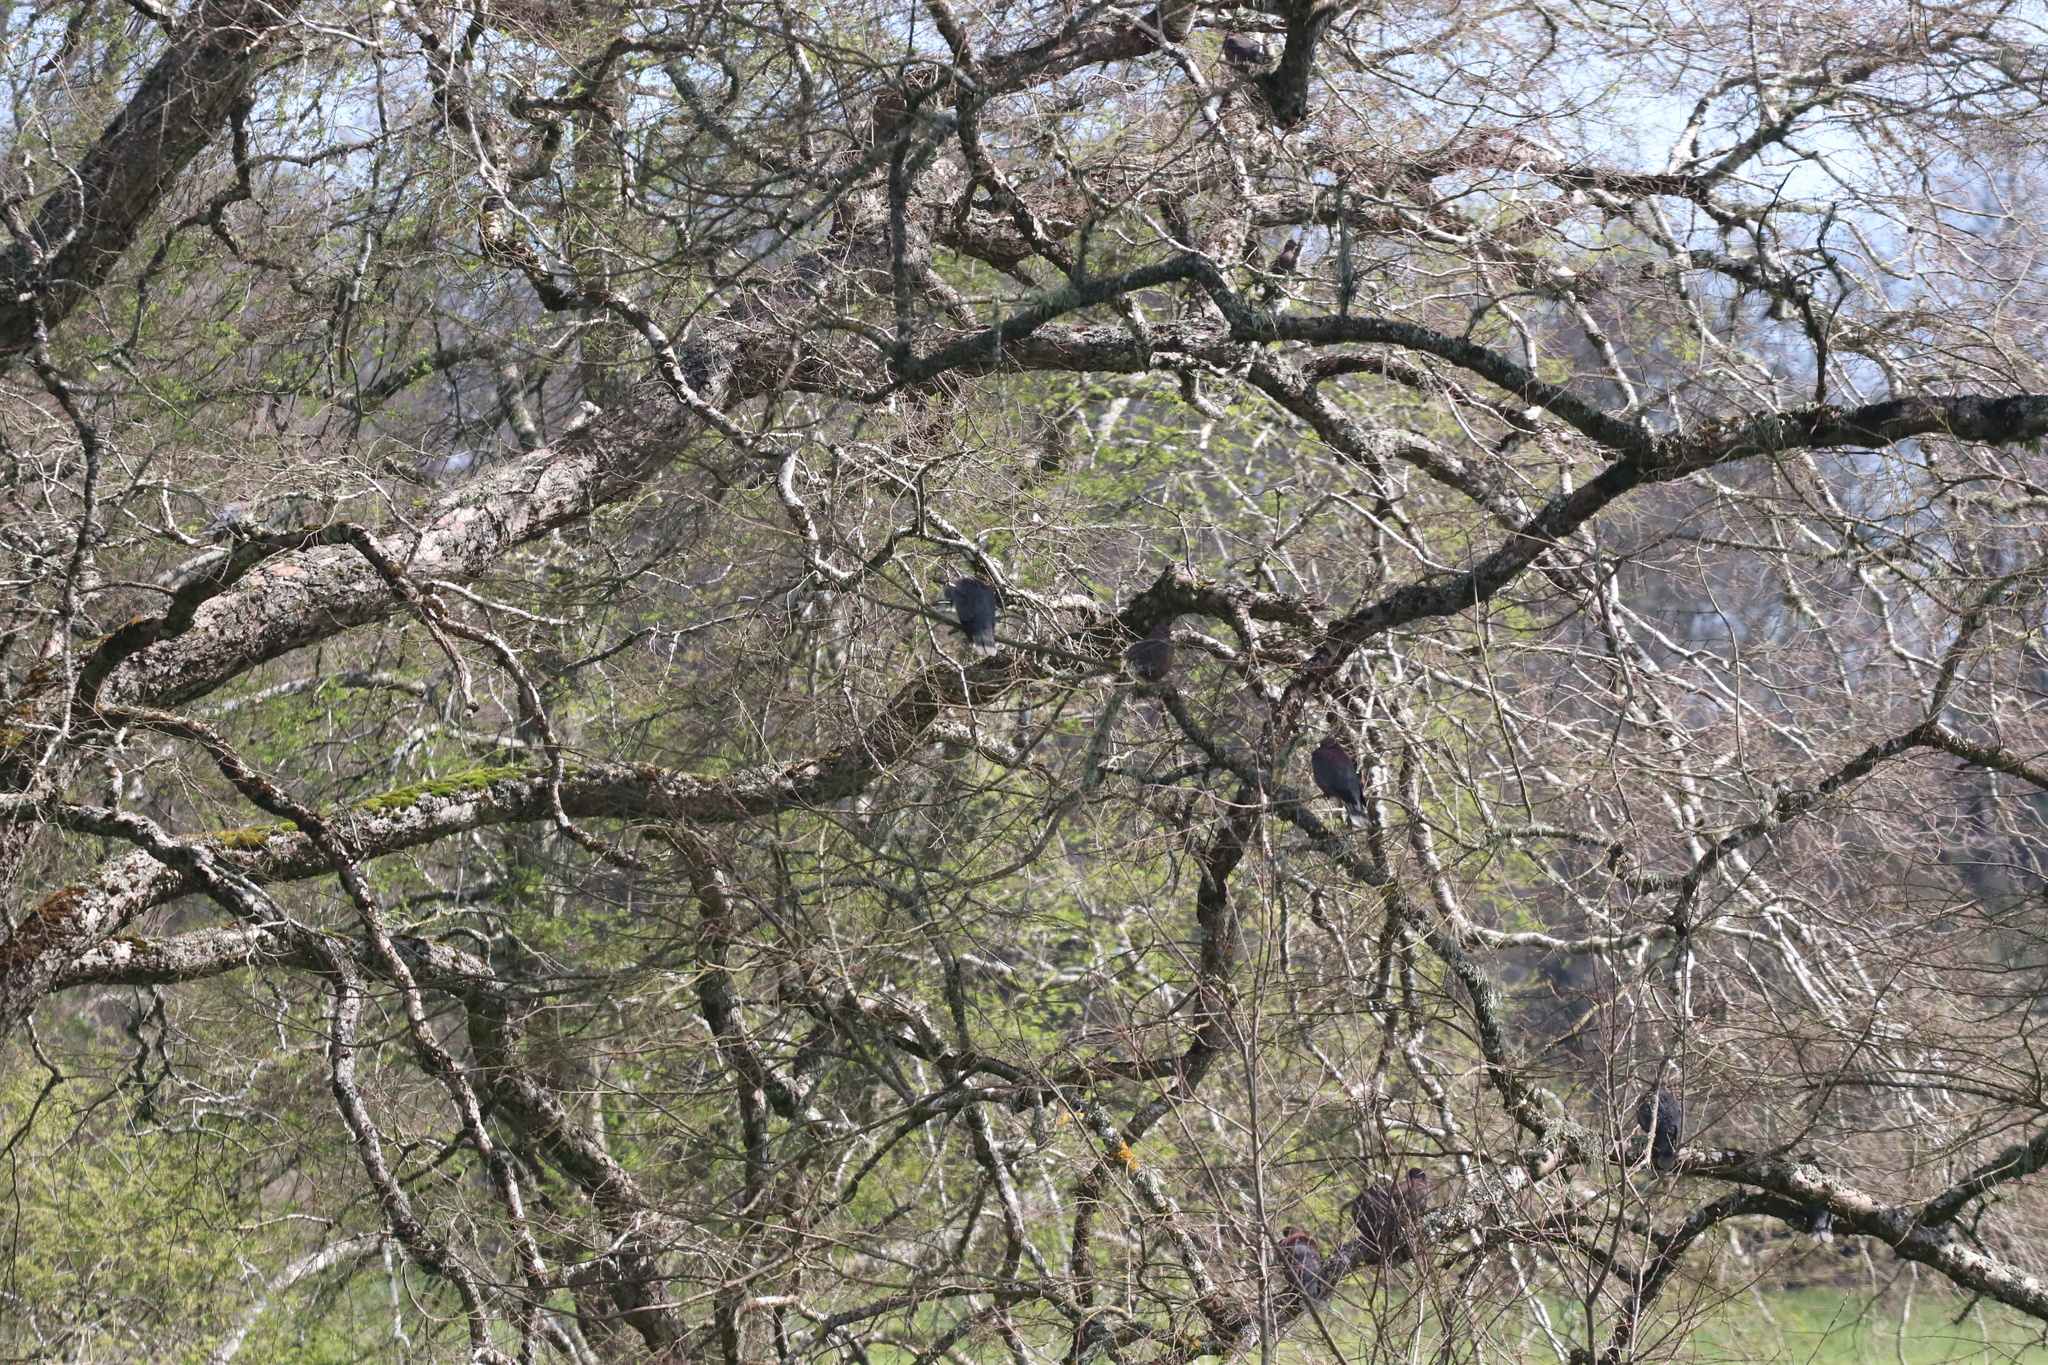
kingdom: Animalia
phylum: Chordata
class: Aves
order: Columbiformes
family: Columbidae
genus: Patagioenas
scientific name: Patagioenas araucana
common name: Chilean pigeon
